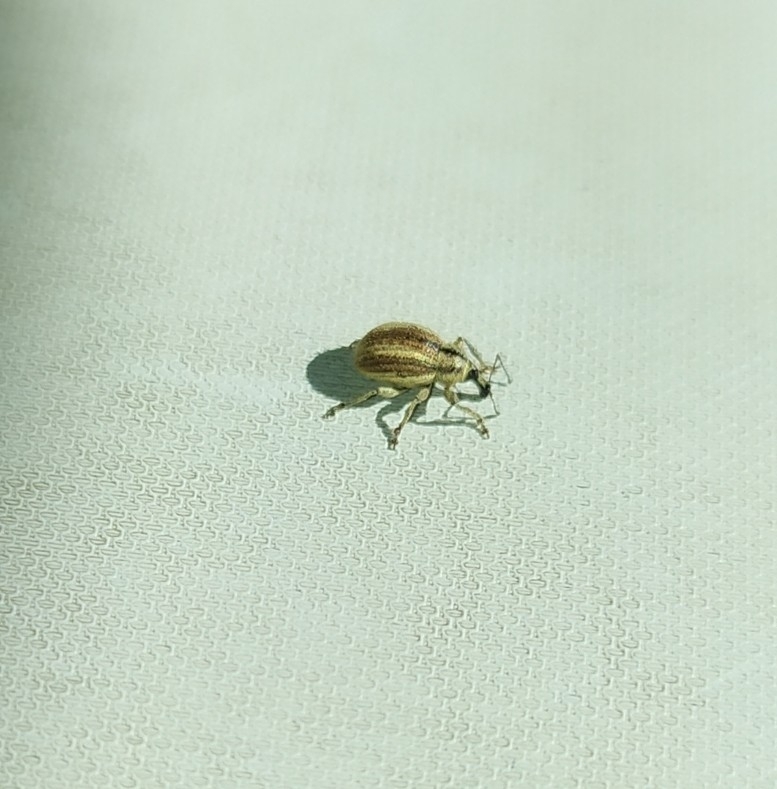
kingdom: Animalia
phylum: Arthropoda
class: Insecta
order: Coleoptera
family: Curculionidae
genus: Apsis
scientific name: Apsis albolineata
